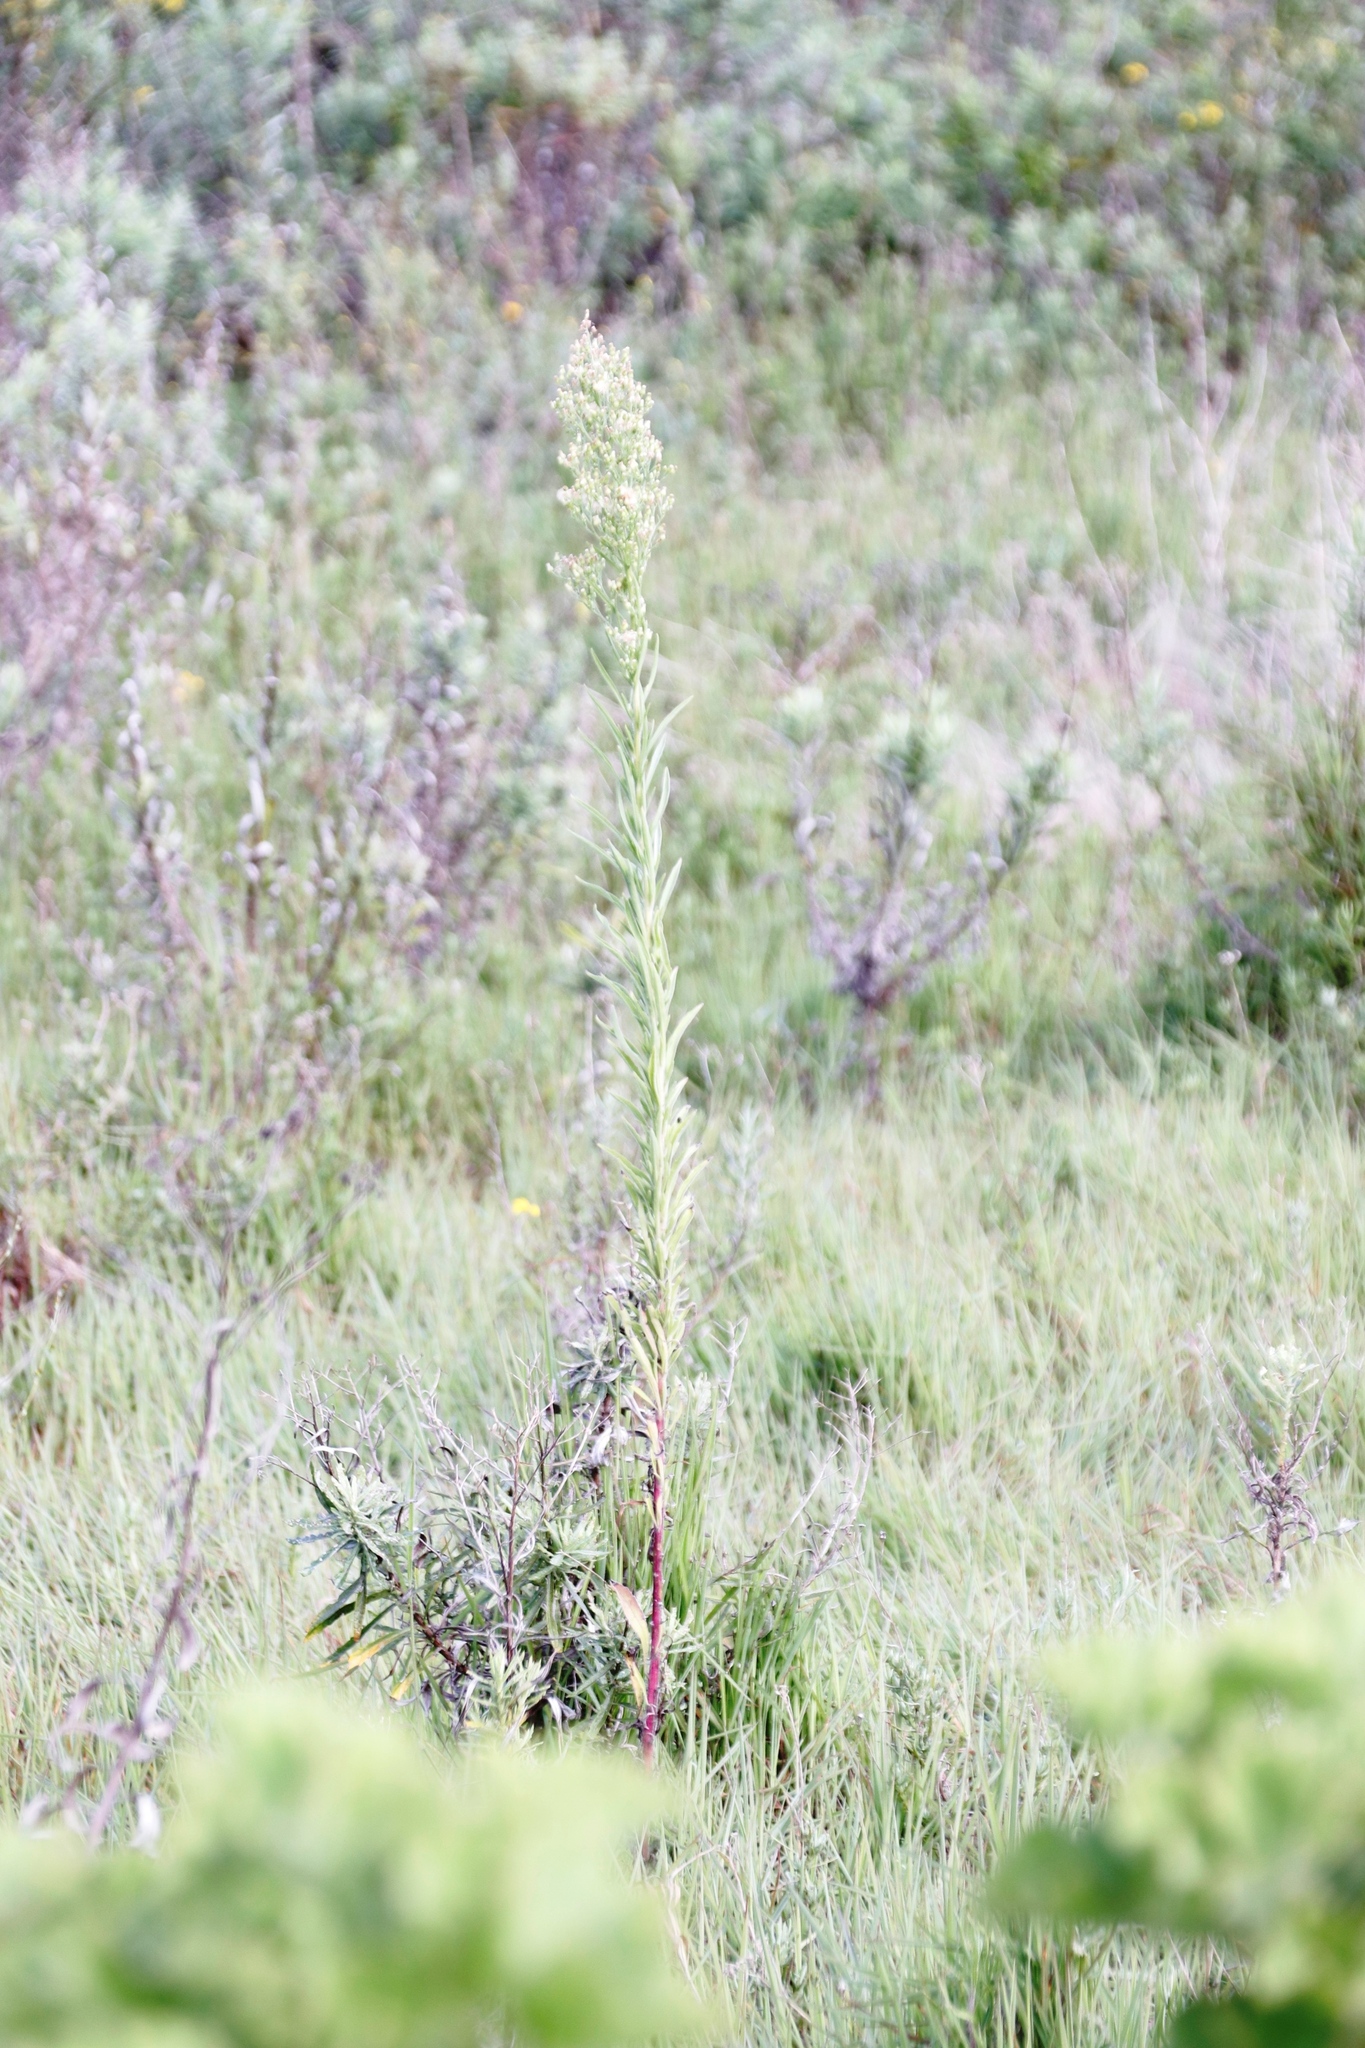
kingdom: Plantae
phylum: Tracheophyta
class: Magnoliopsida
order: Asterales
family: Asteraceae
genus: Erigeron
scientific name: Erigeron sumatrensis
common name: Daisy
